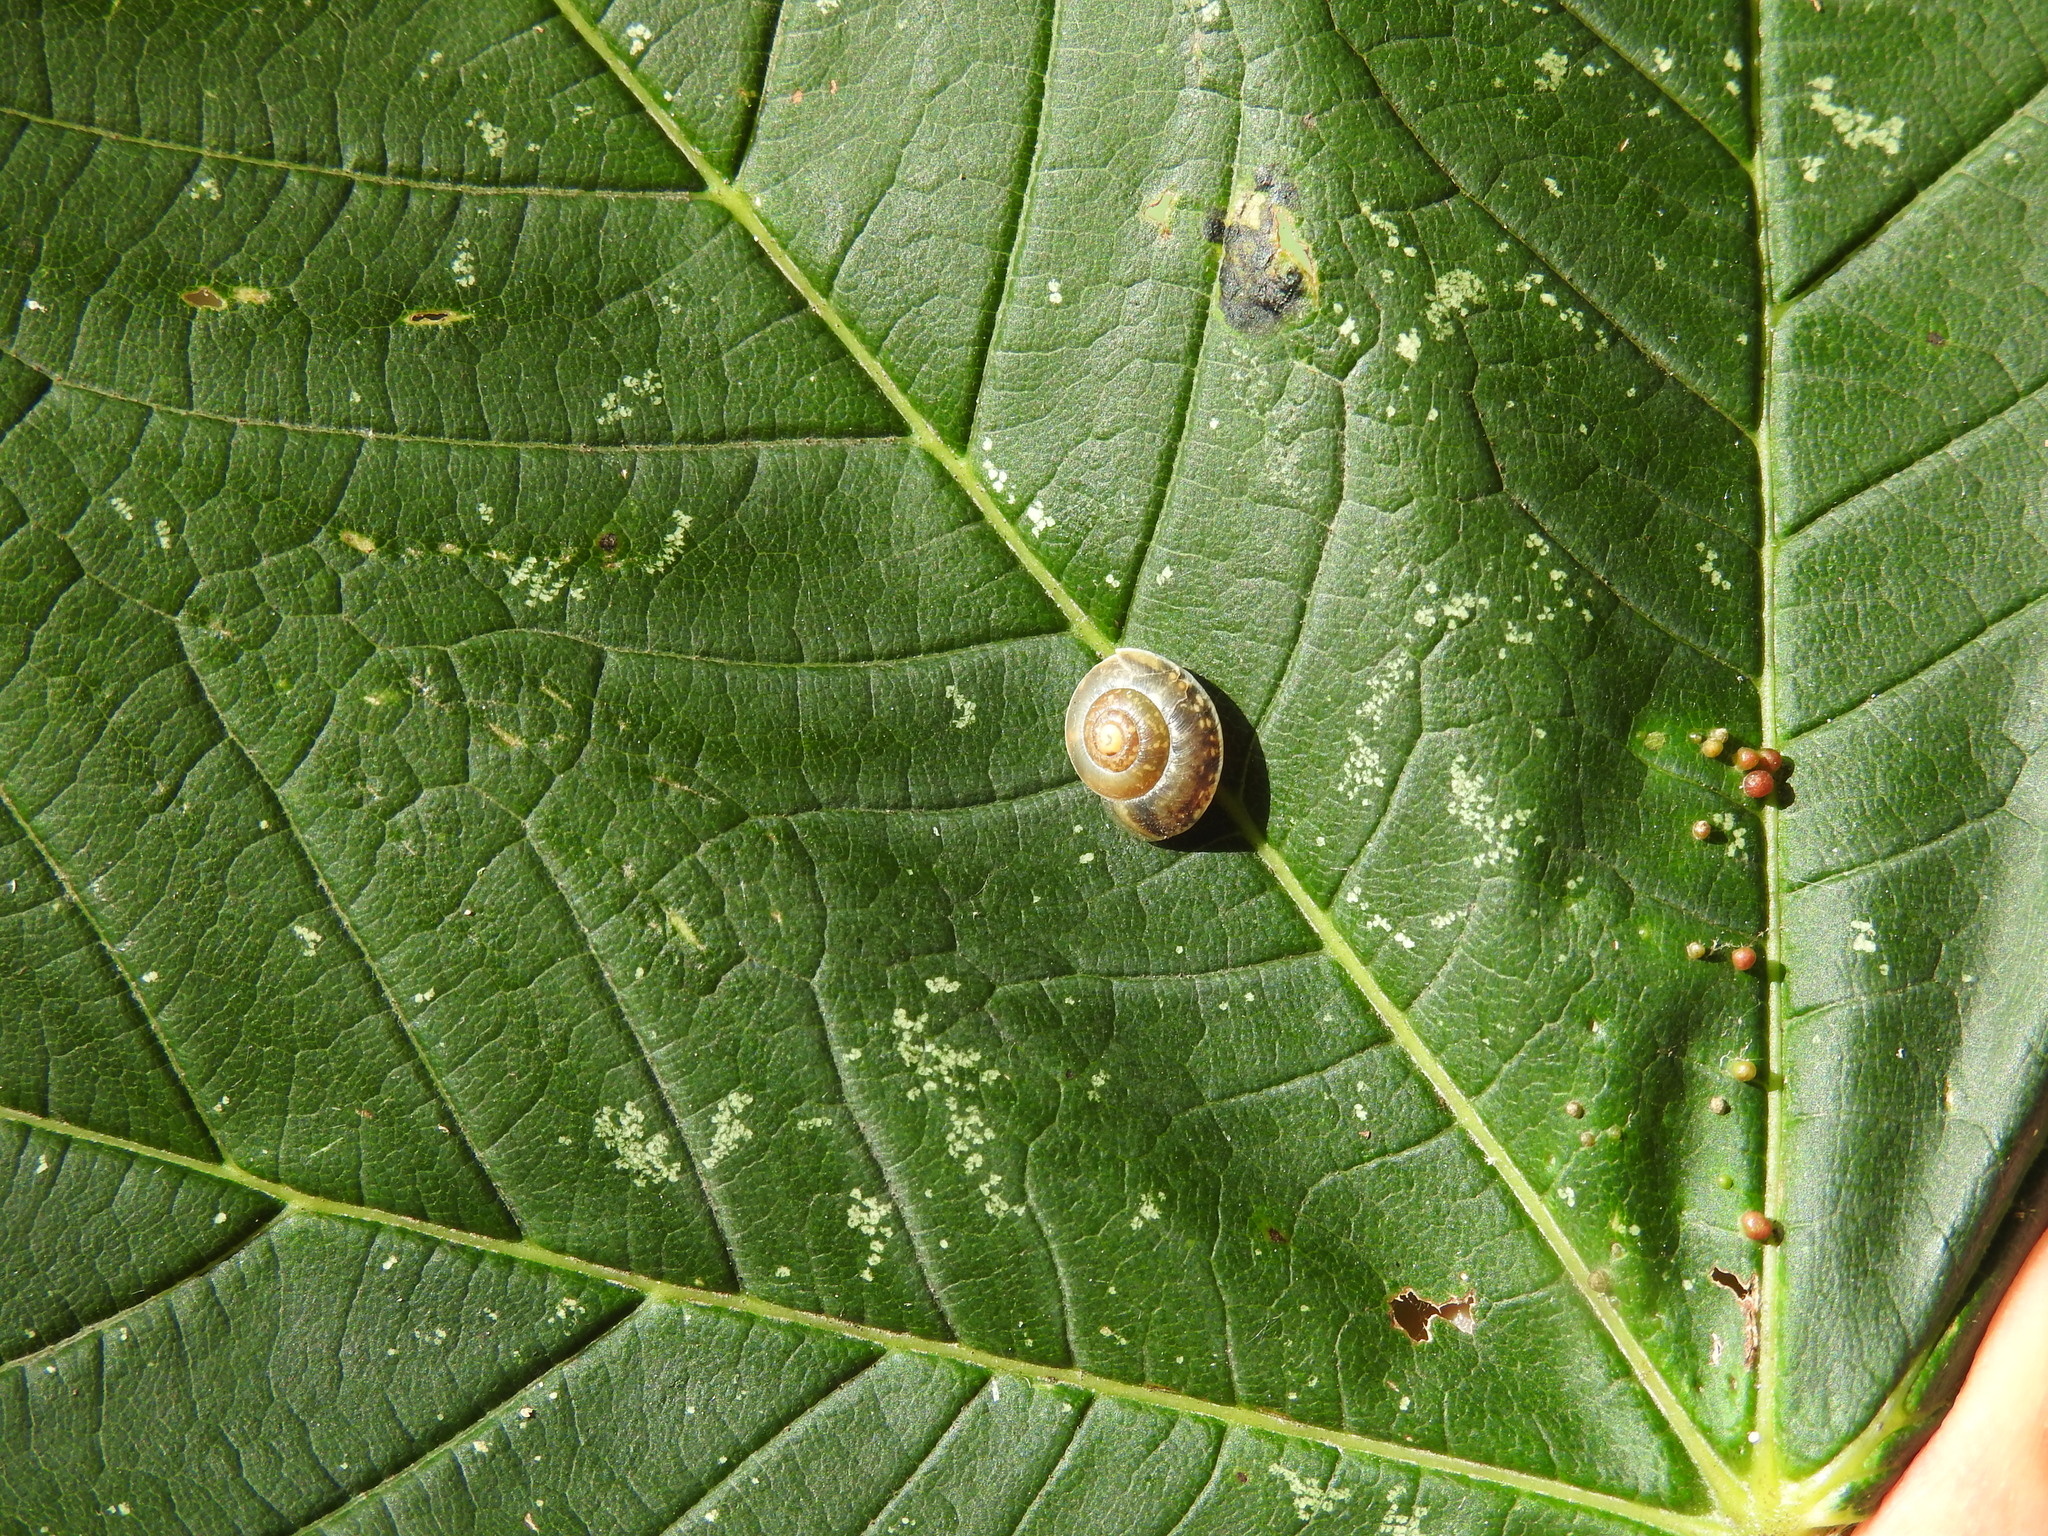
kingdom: Animalia
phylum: Mollusca
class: Gastropoda
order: Stylommatophora
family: Hygromiidae
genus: Hygromia
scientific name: Hygromia cinctella
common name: Girdled snail
